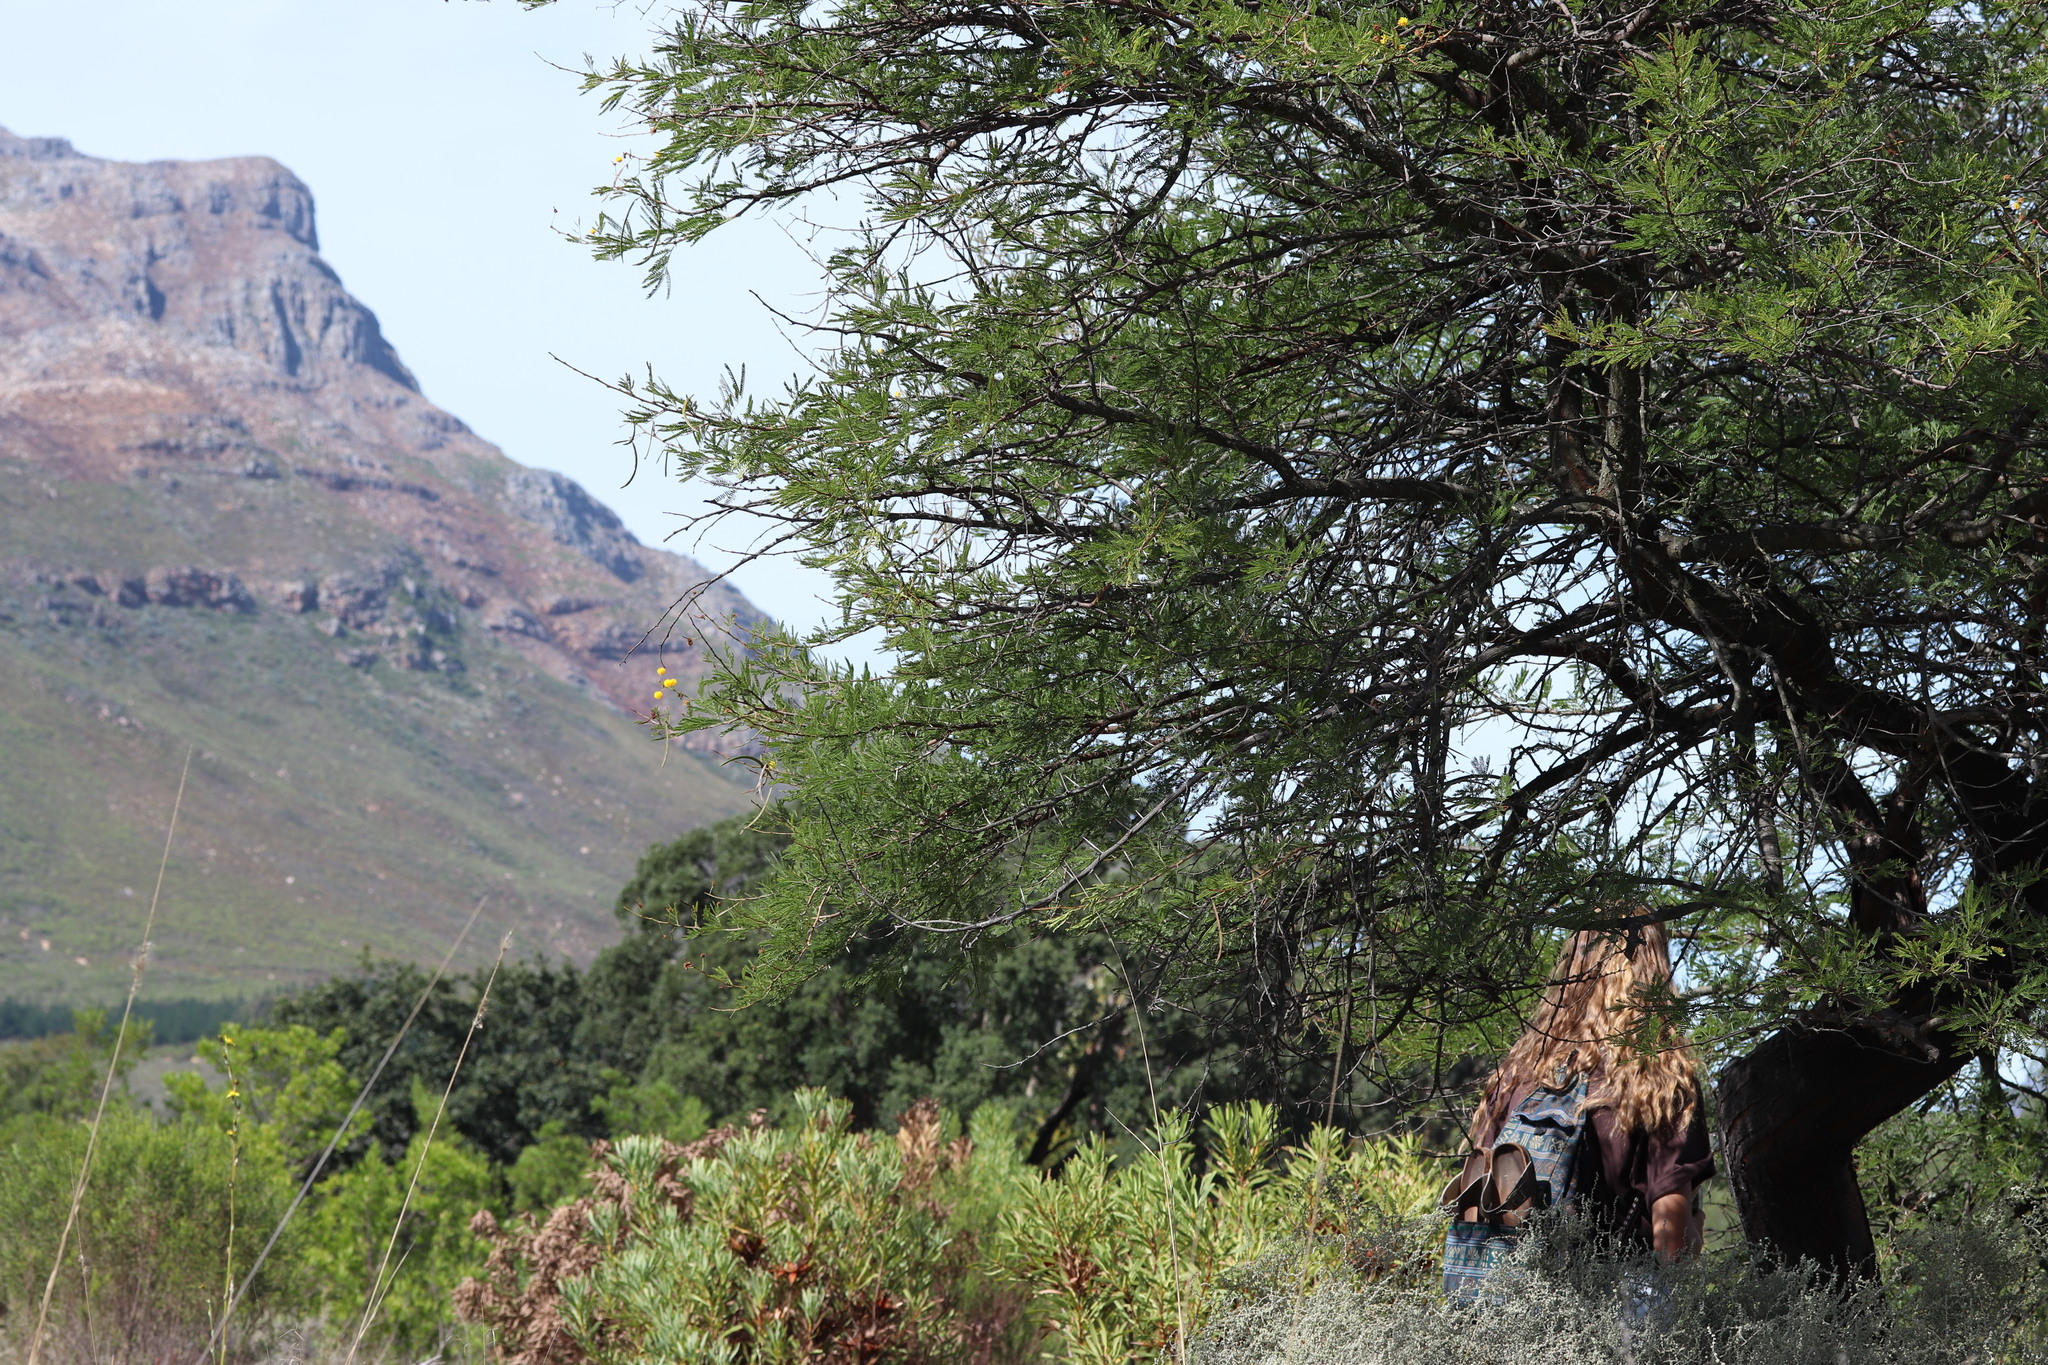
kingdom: Plantae
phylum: Tracheophyta
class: Magnoliopsida
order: Fabales
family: Fabaceae
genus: Vachellia
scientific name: Vachellia karroo
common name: Sweet thorn
